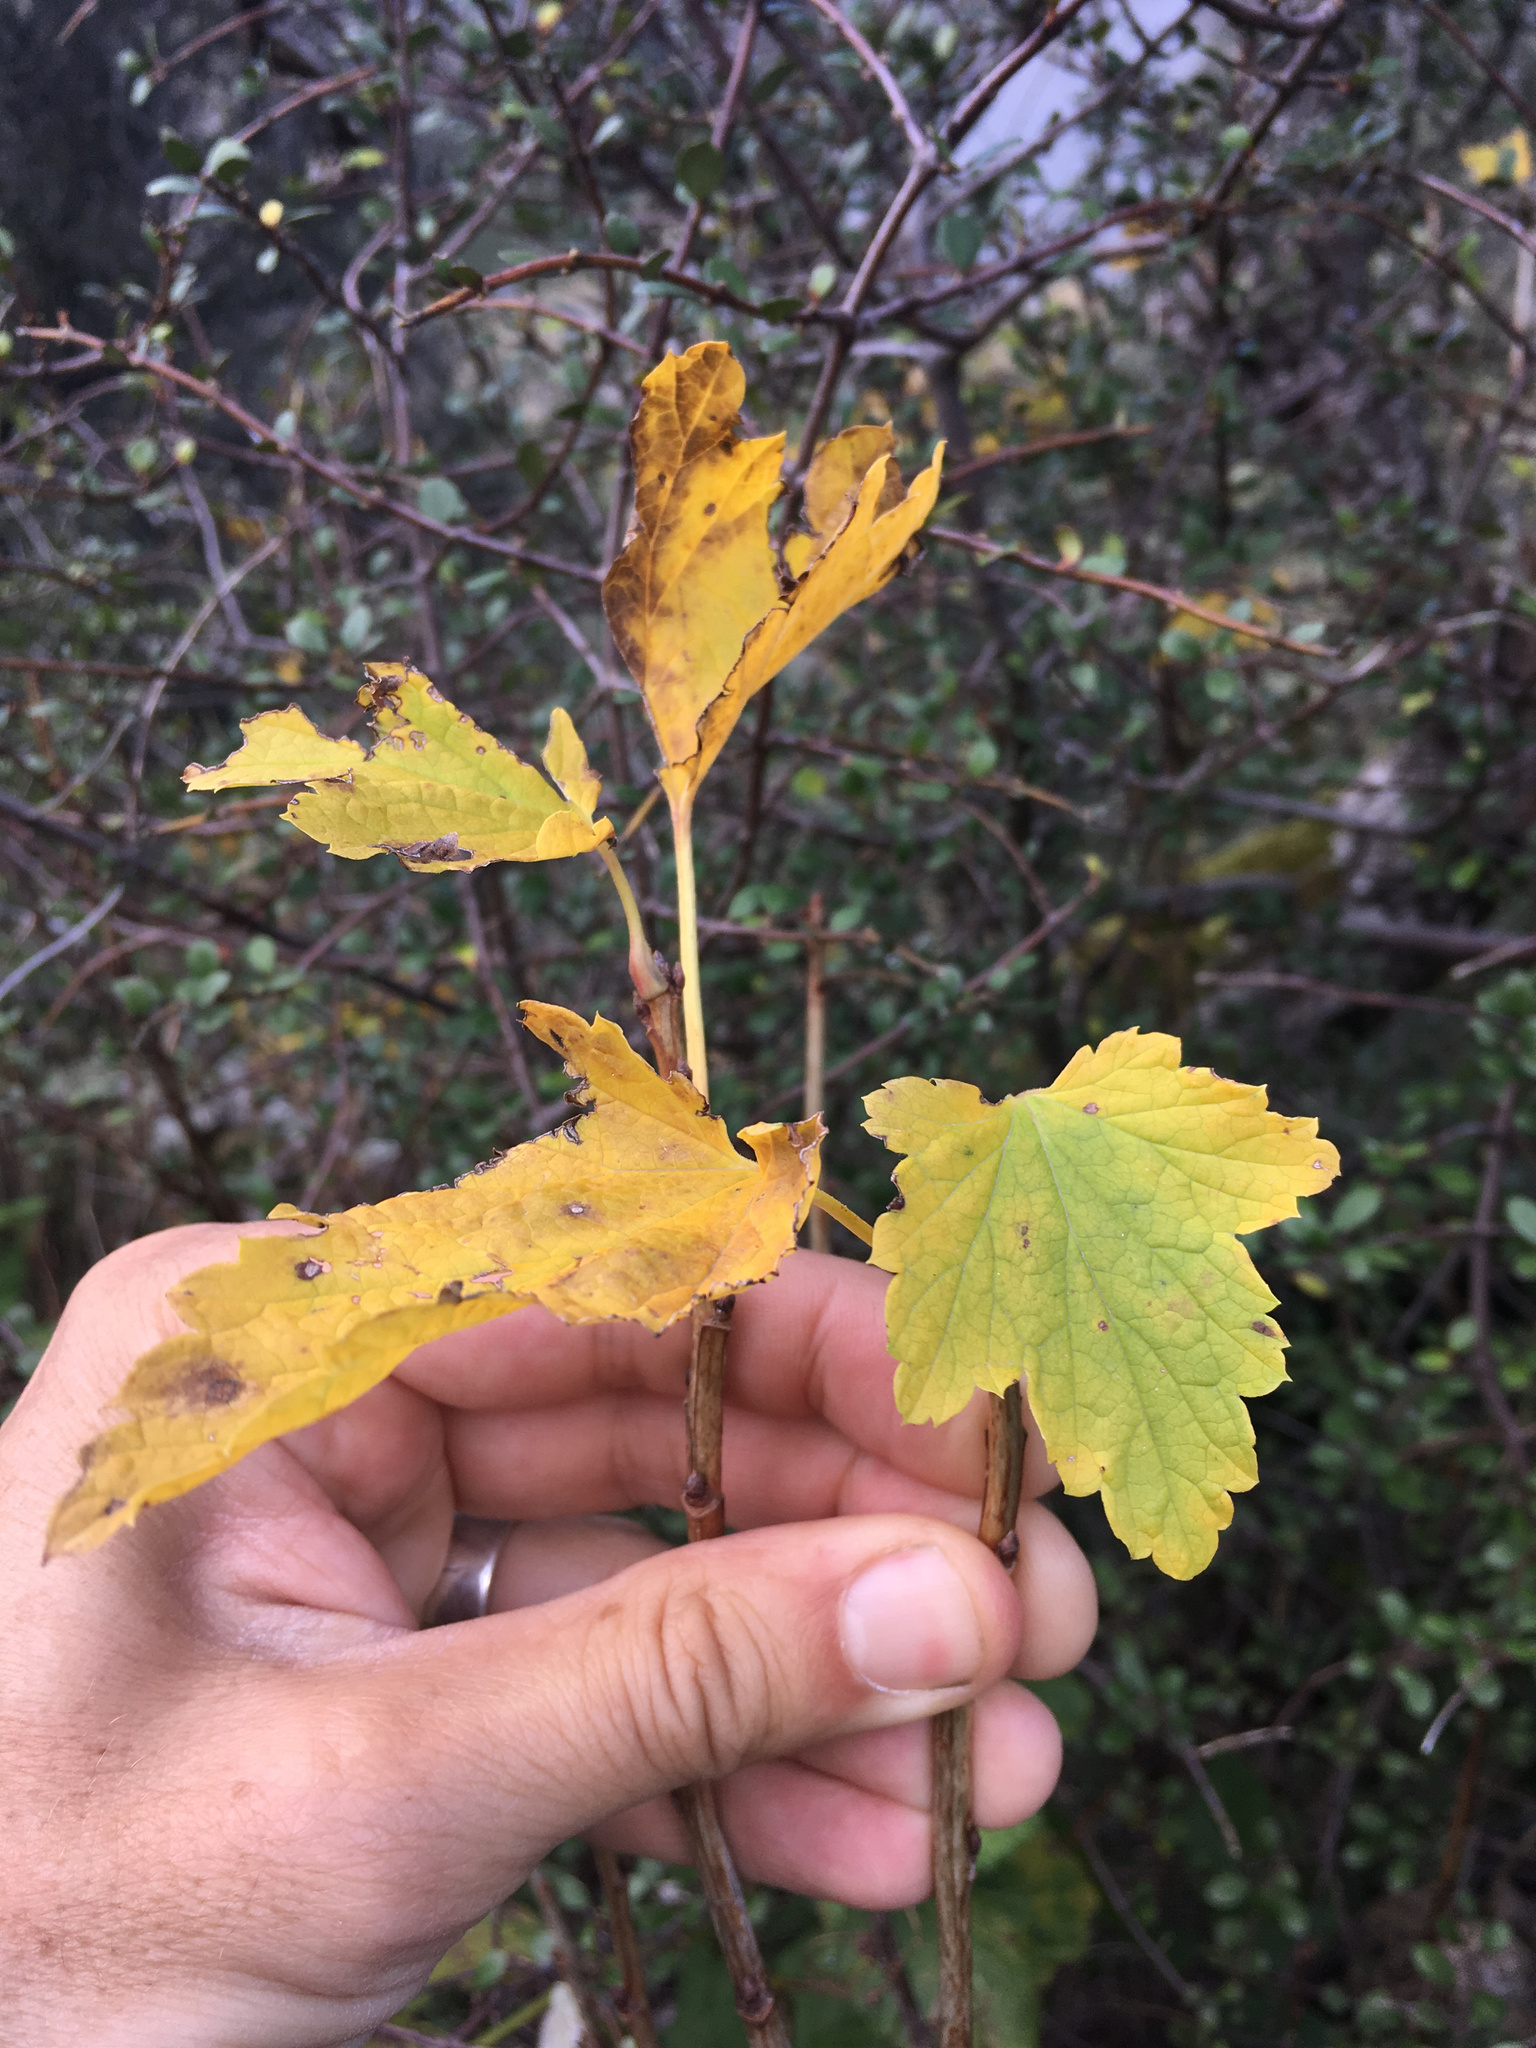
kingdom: Plantae
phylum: Tracheophyta
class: Magnoliopsida
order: Saxifragales
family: Grossulariaceae
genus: Ribes
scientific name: Ribes rubrum
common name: Red currant
